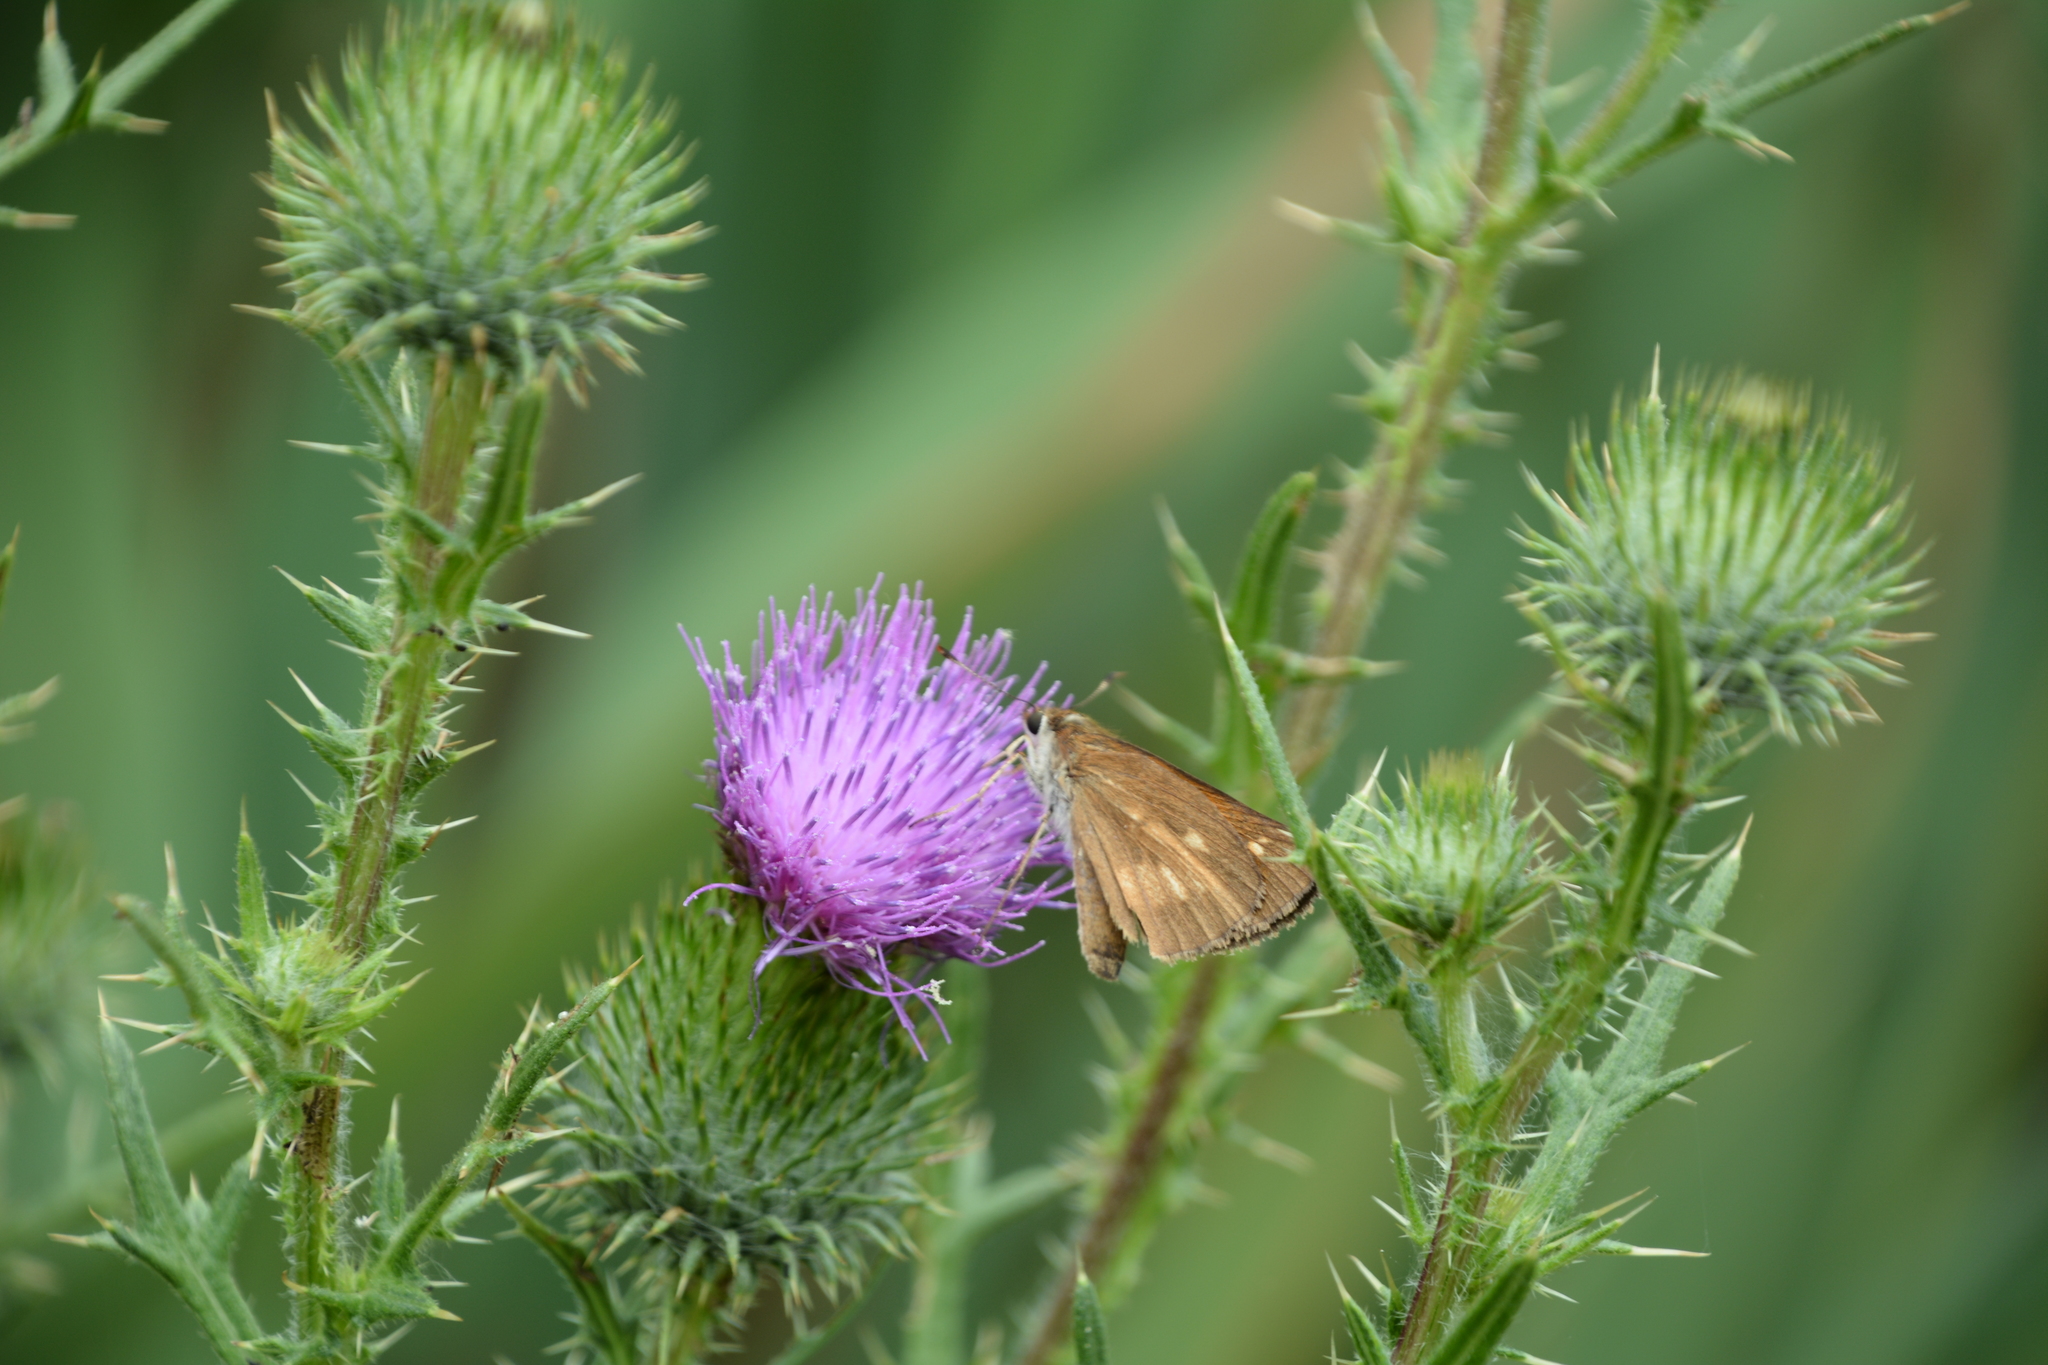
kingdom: Plantae
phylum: Tracheophyta
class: Magnoliopsida
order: Asterales
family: Asteraceae
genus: Cirsium
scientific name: Cirsium vulgare
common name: Bull thistle
